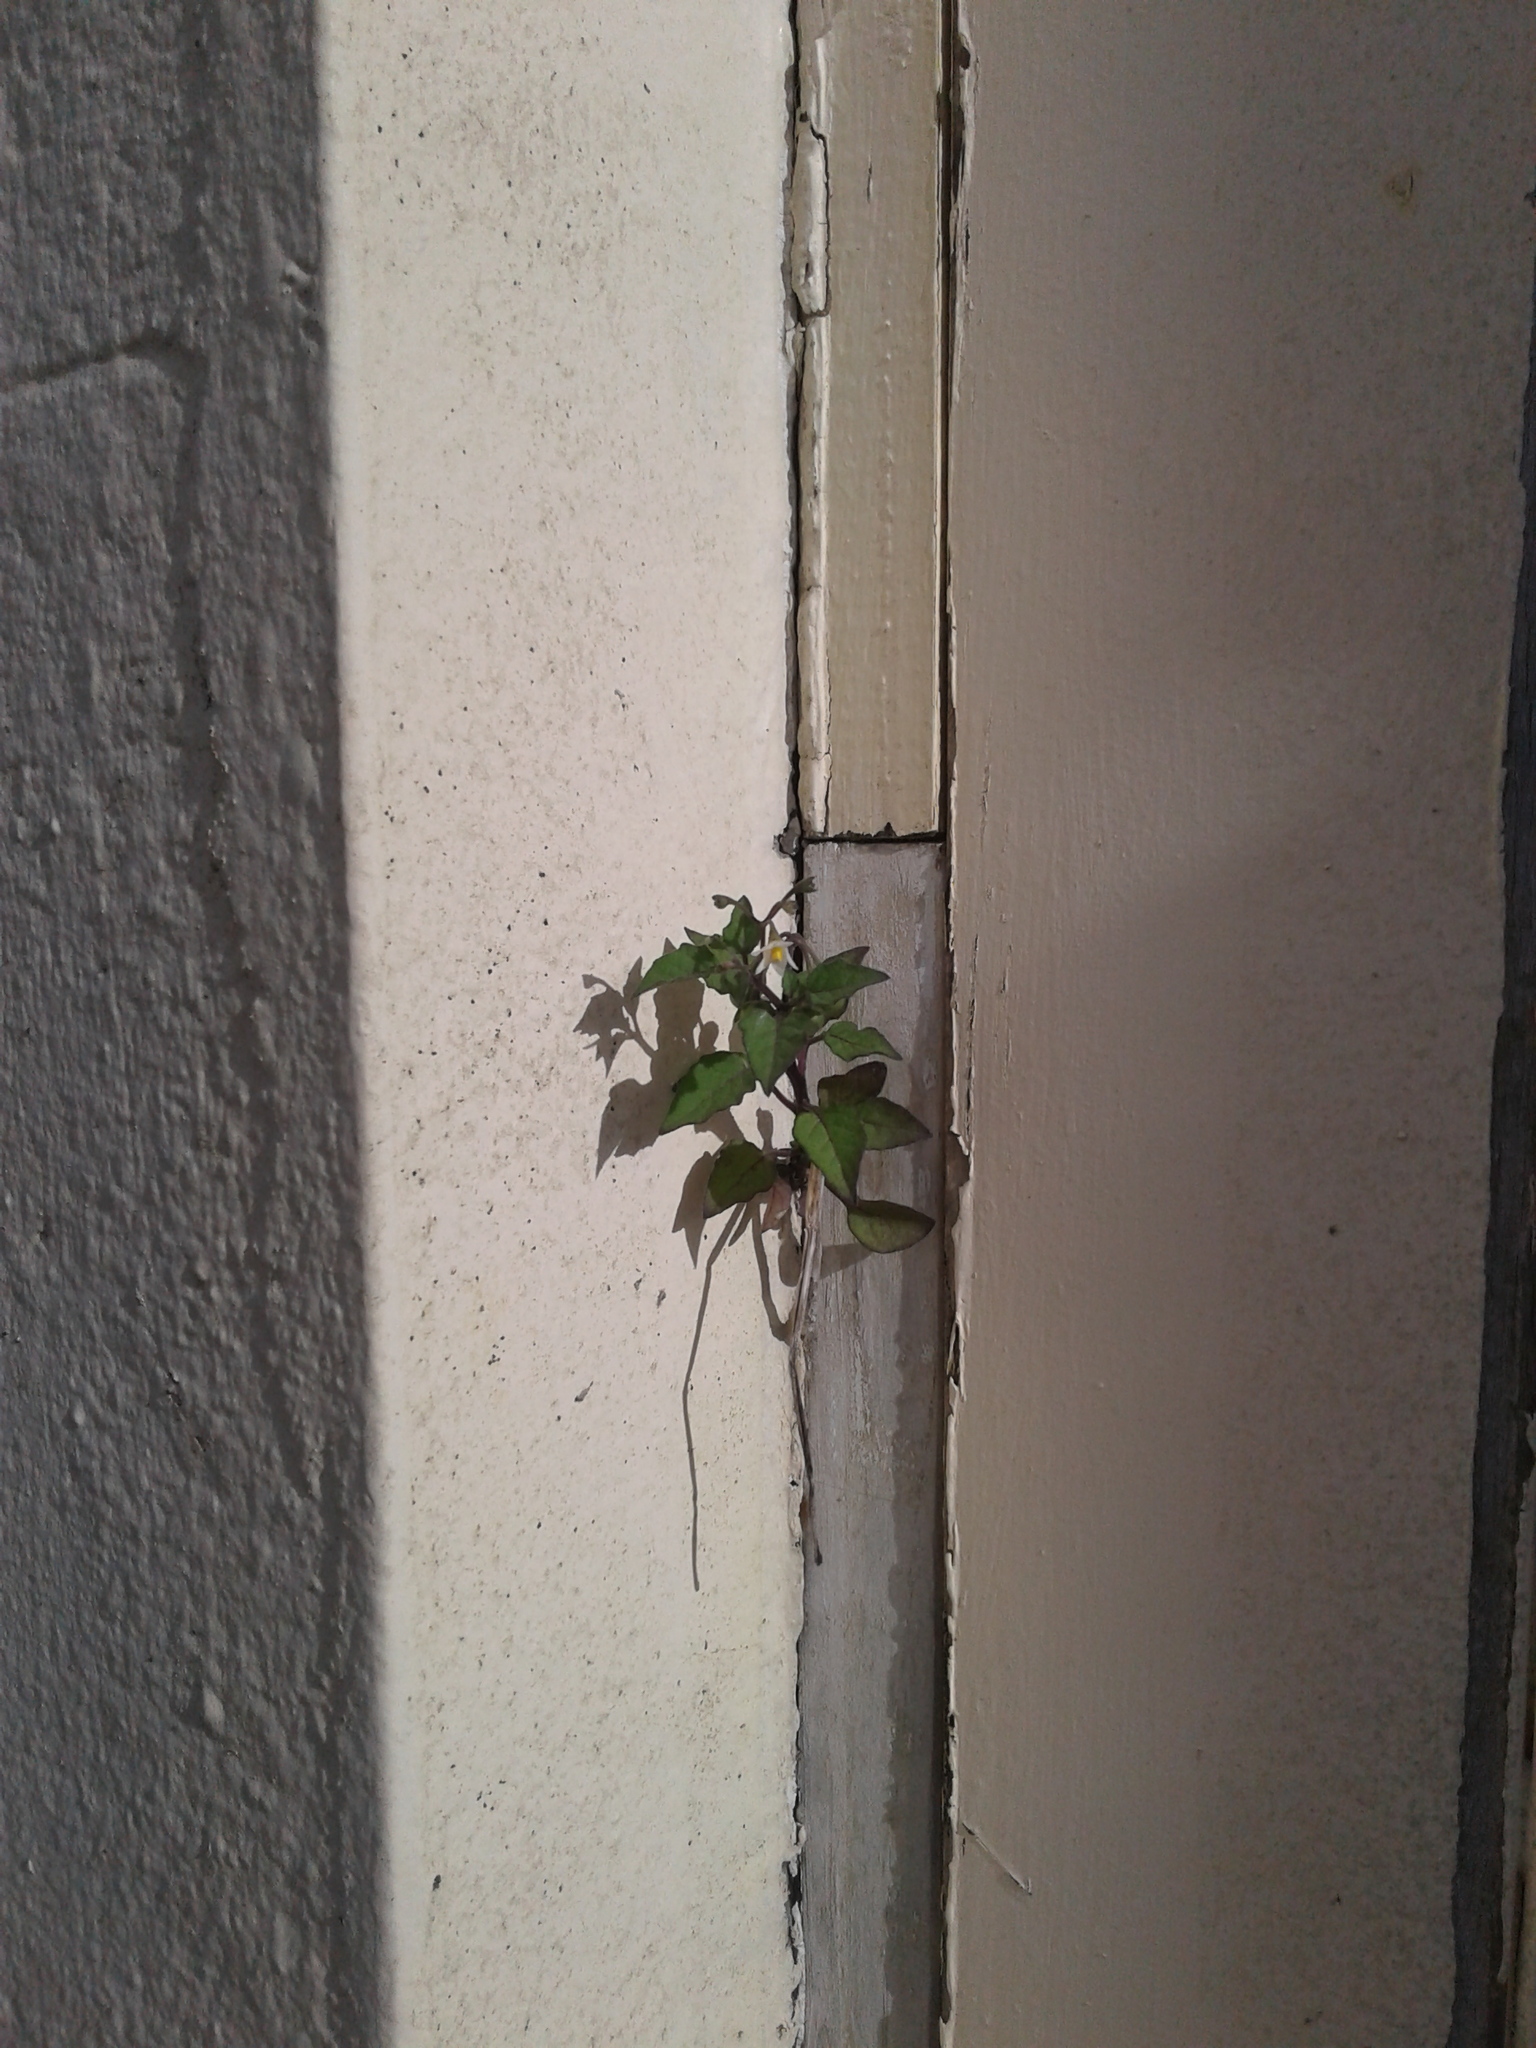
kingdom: Plantae
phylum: Tracheophyta
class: Magnoliopsida
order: Solanales
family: Solanaceae
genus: Solanum
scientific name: Solanum nigrum
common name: Black nightshade
